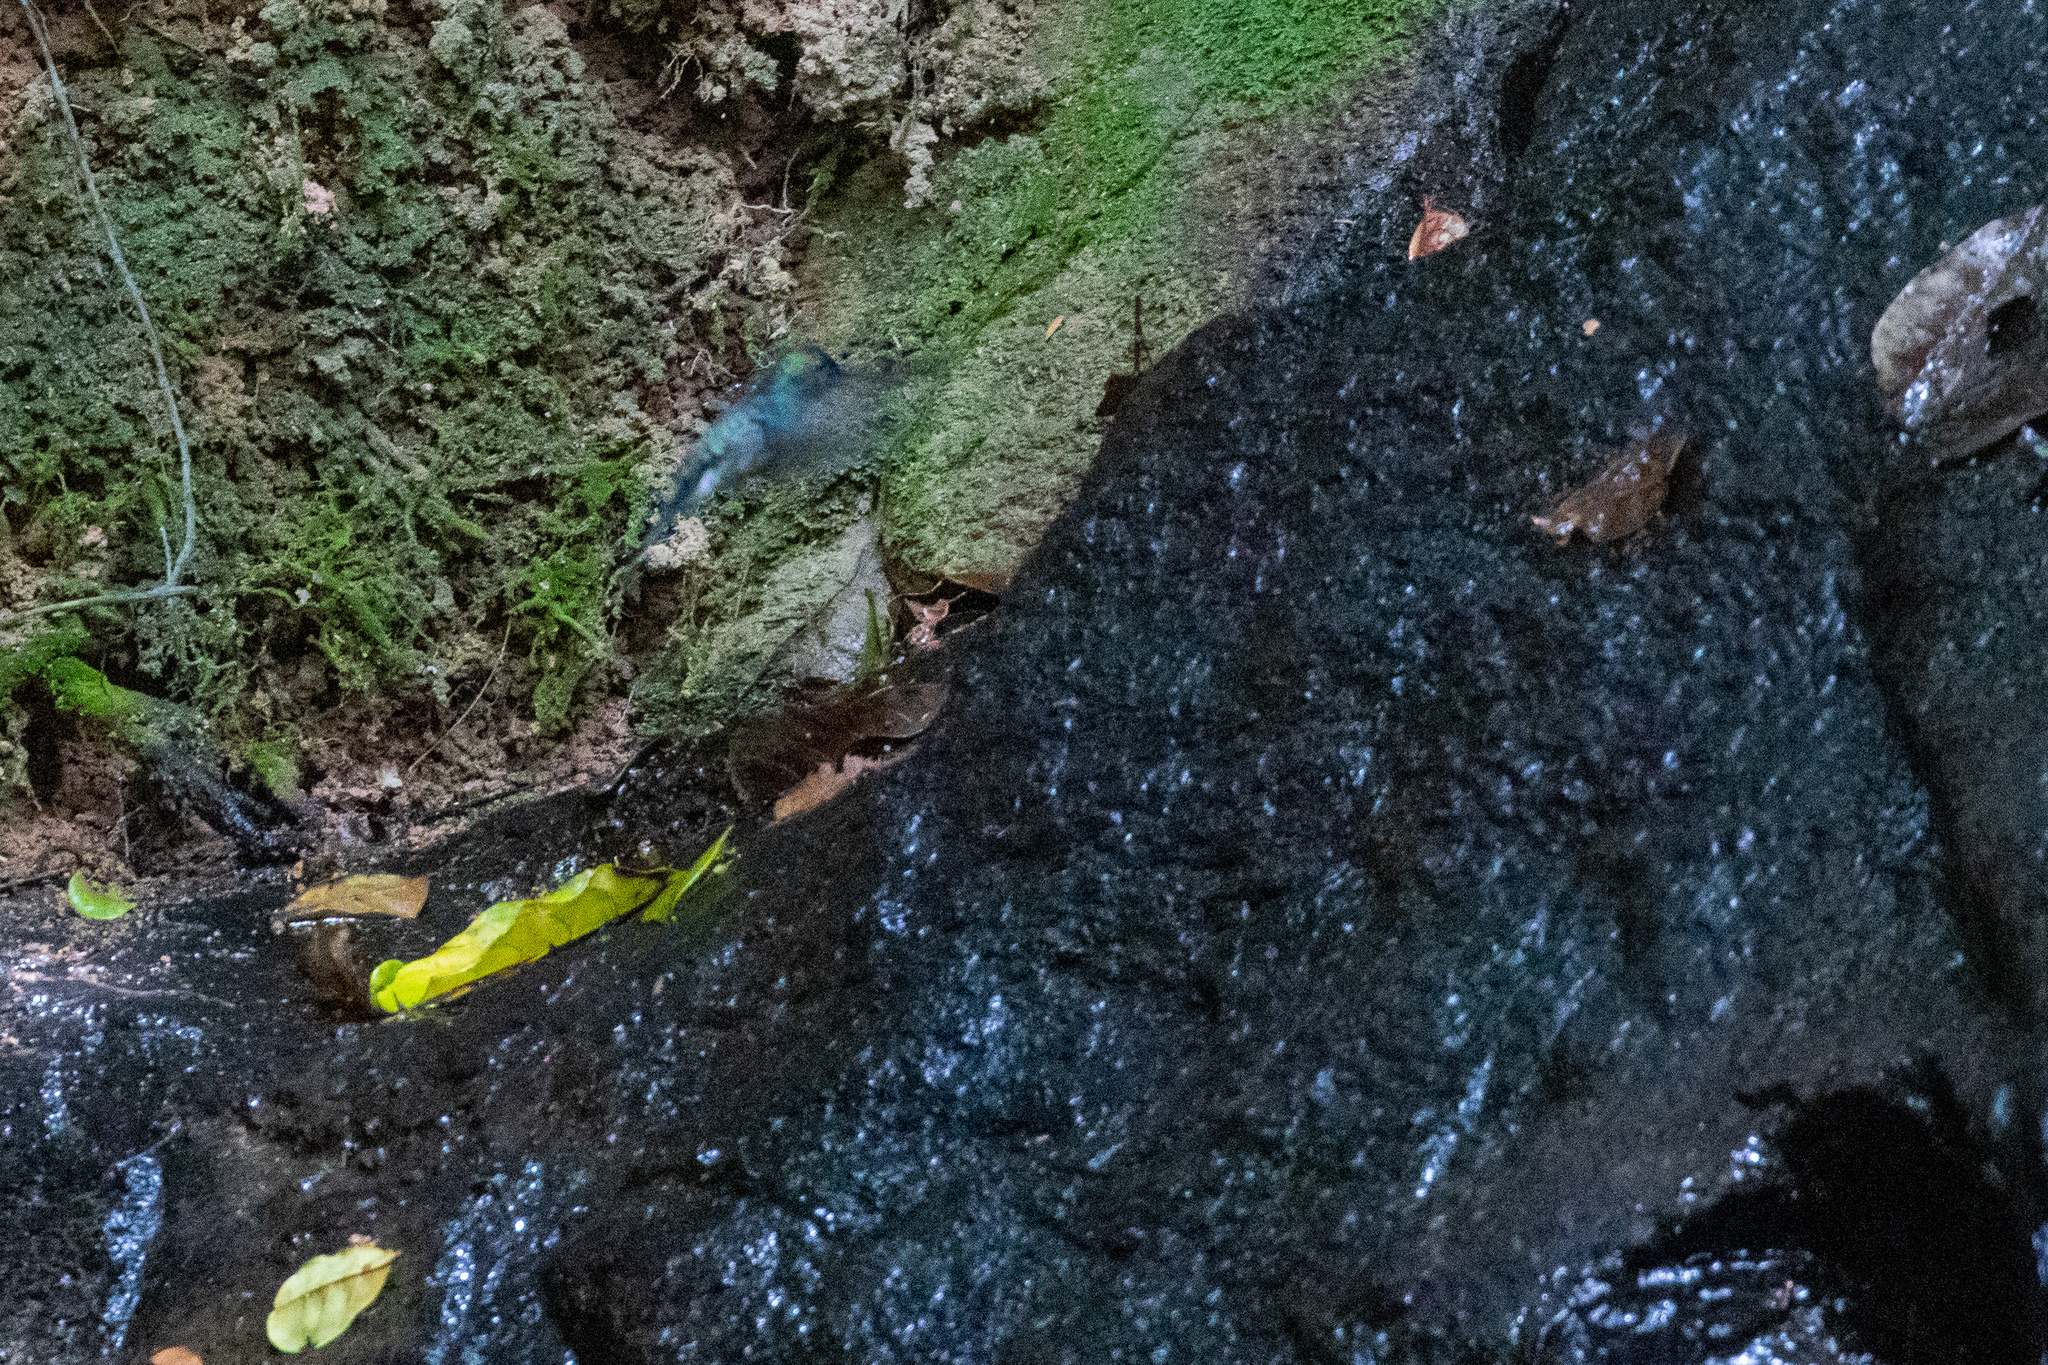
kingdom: Animalia
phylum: Chordata
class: Aves
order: Apodiformes
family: Trochilidae
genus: Thalurania
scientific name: Thalurania watertonii
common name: Long-tailed woodnymph
